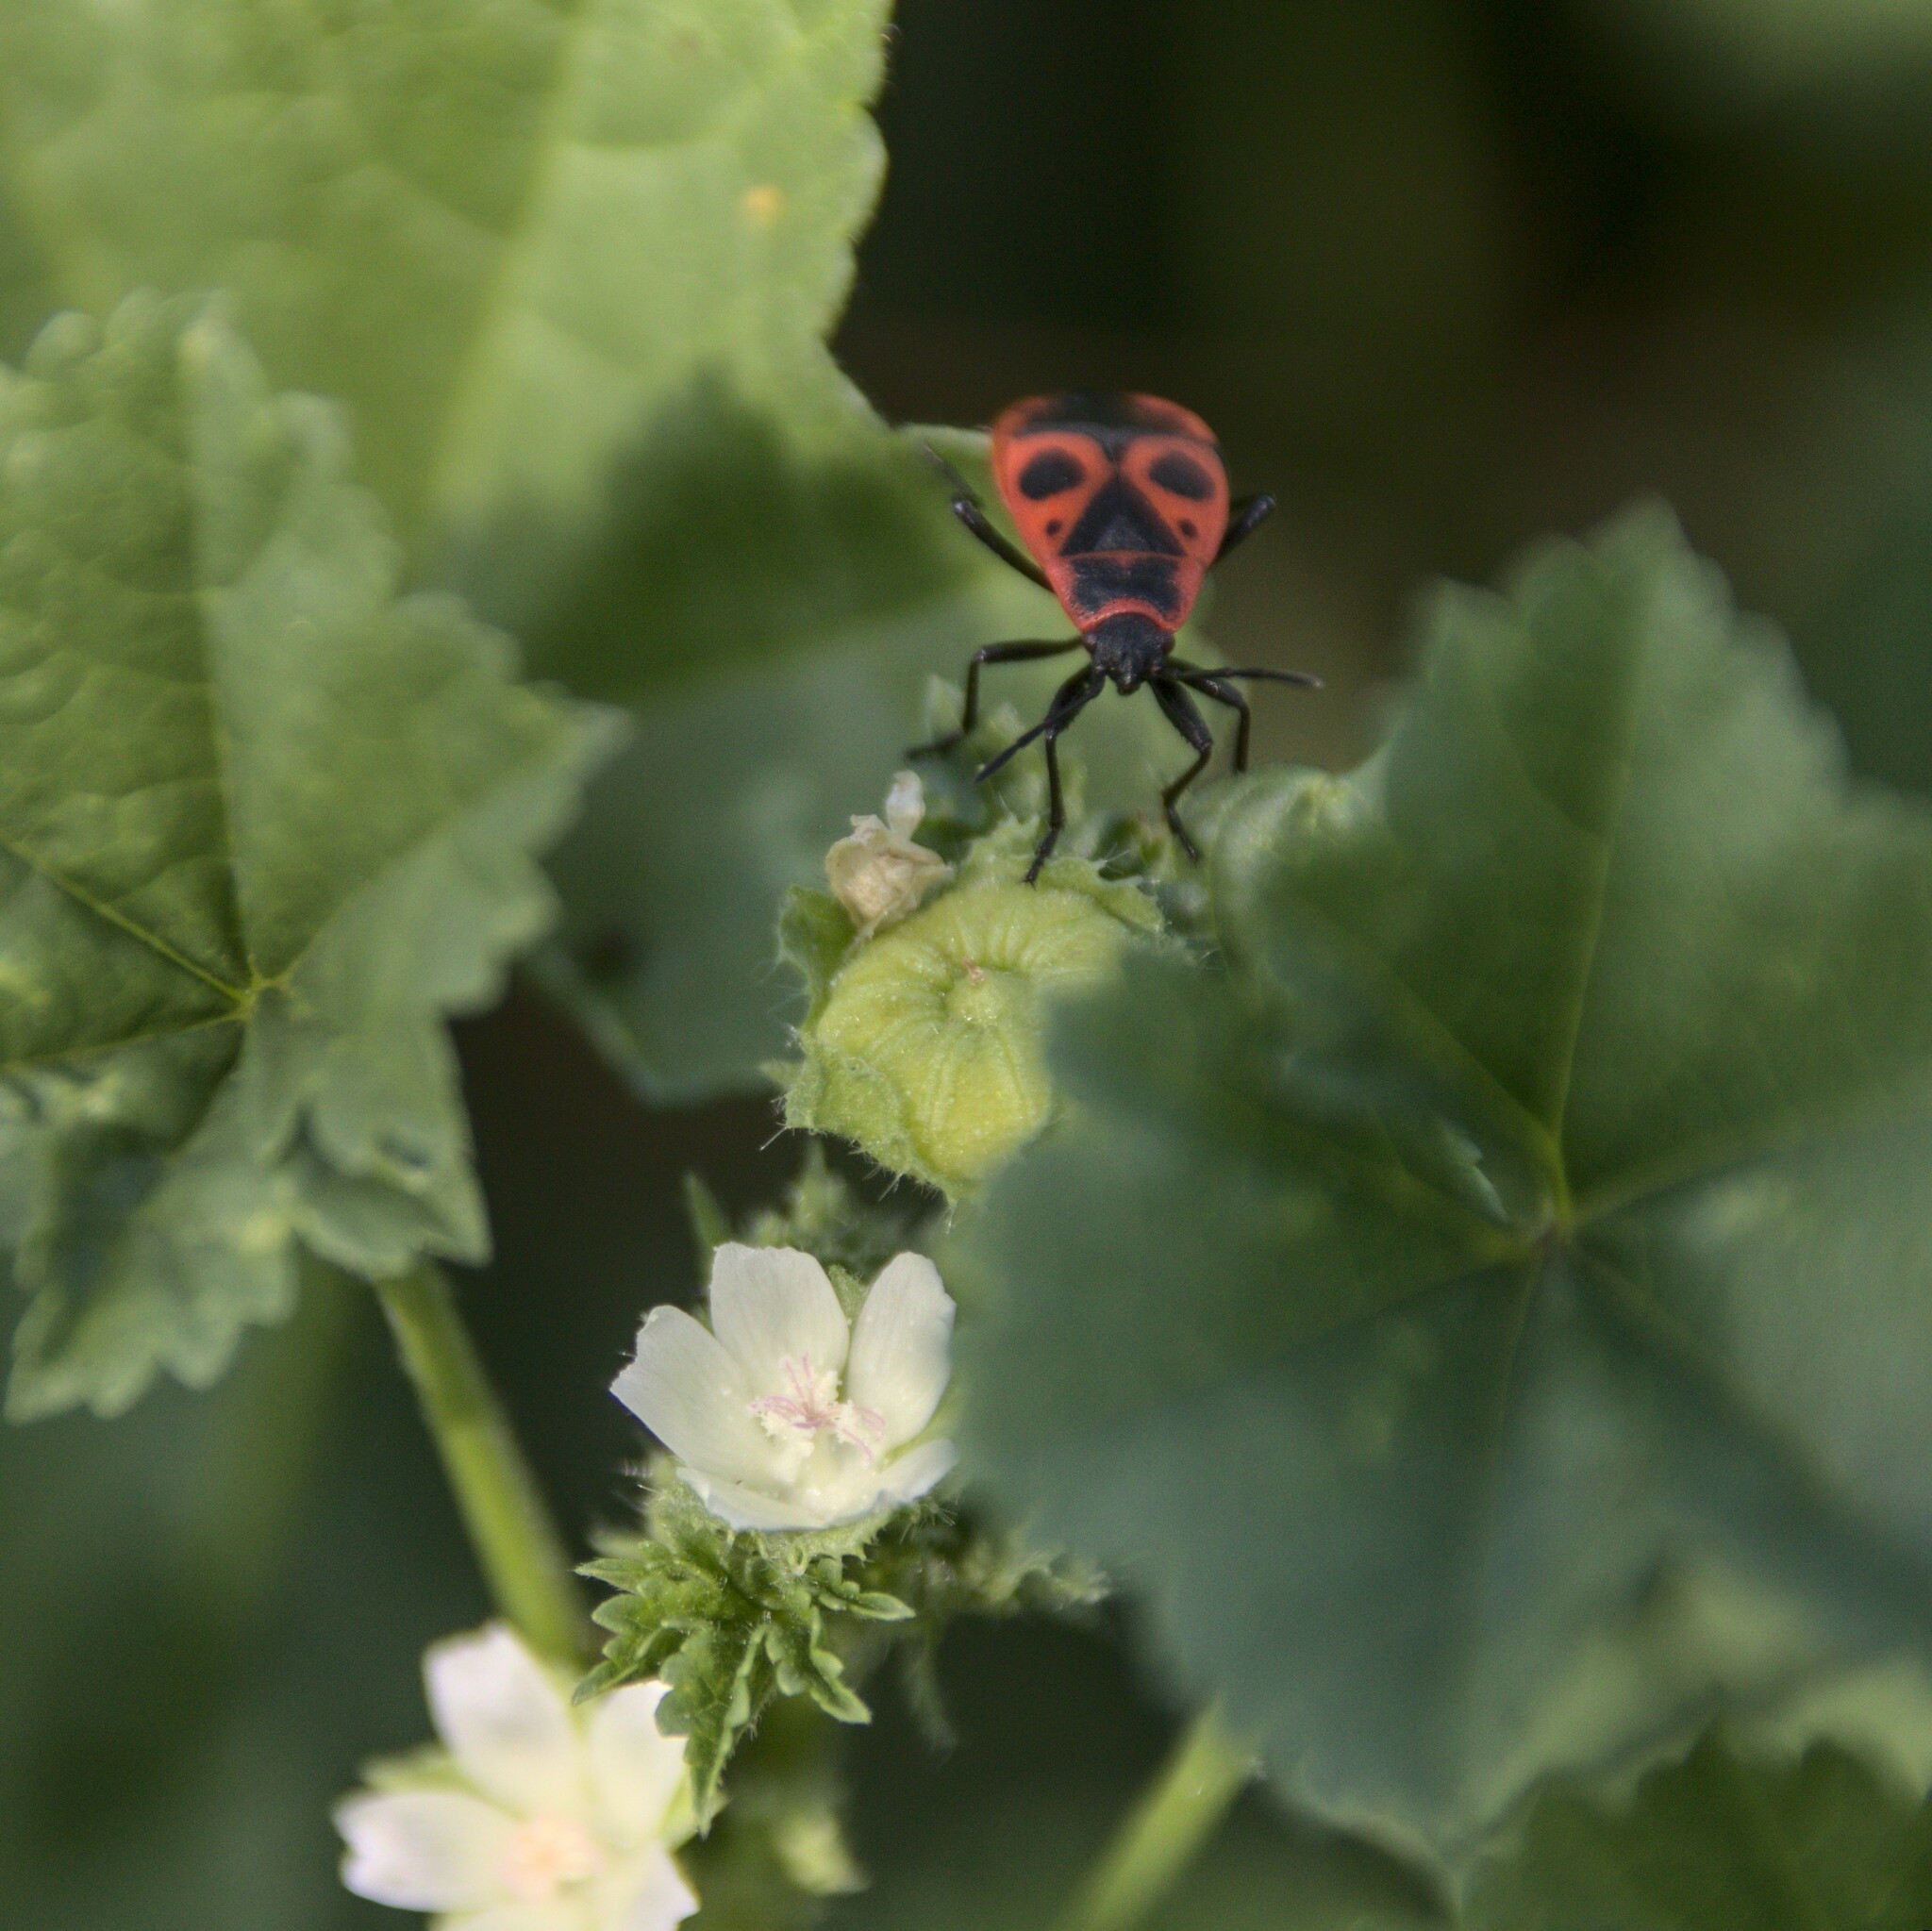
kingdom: Plantae
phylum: Tracheophyta
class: Magnoliopsida
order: Malvales
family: Malvaceae
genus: Malva
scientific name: Malva pusilla
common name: Small mallow
